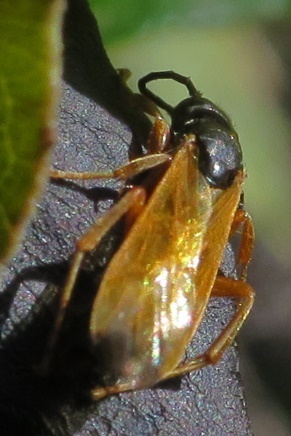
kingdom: Animalia
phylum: Arthropoda
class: Insecta
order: Hymenoptera
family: Pompilidae
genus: Epipompilus
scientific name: Epipompilus insularis
